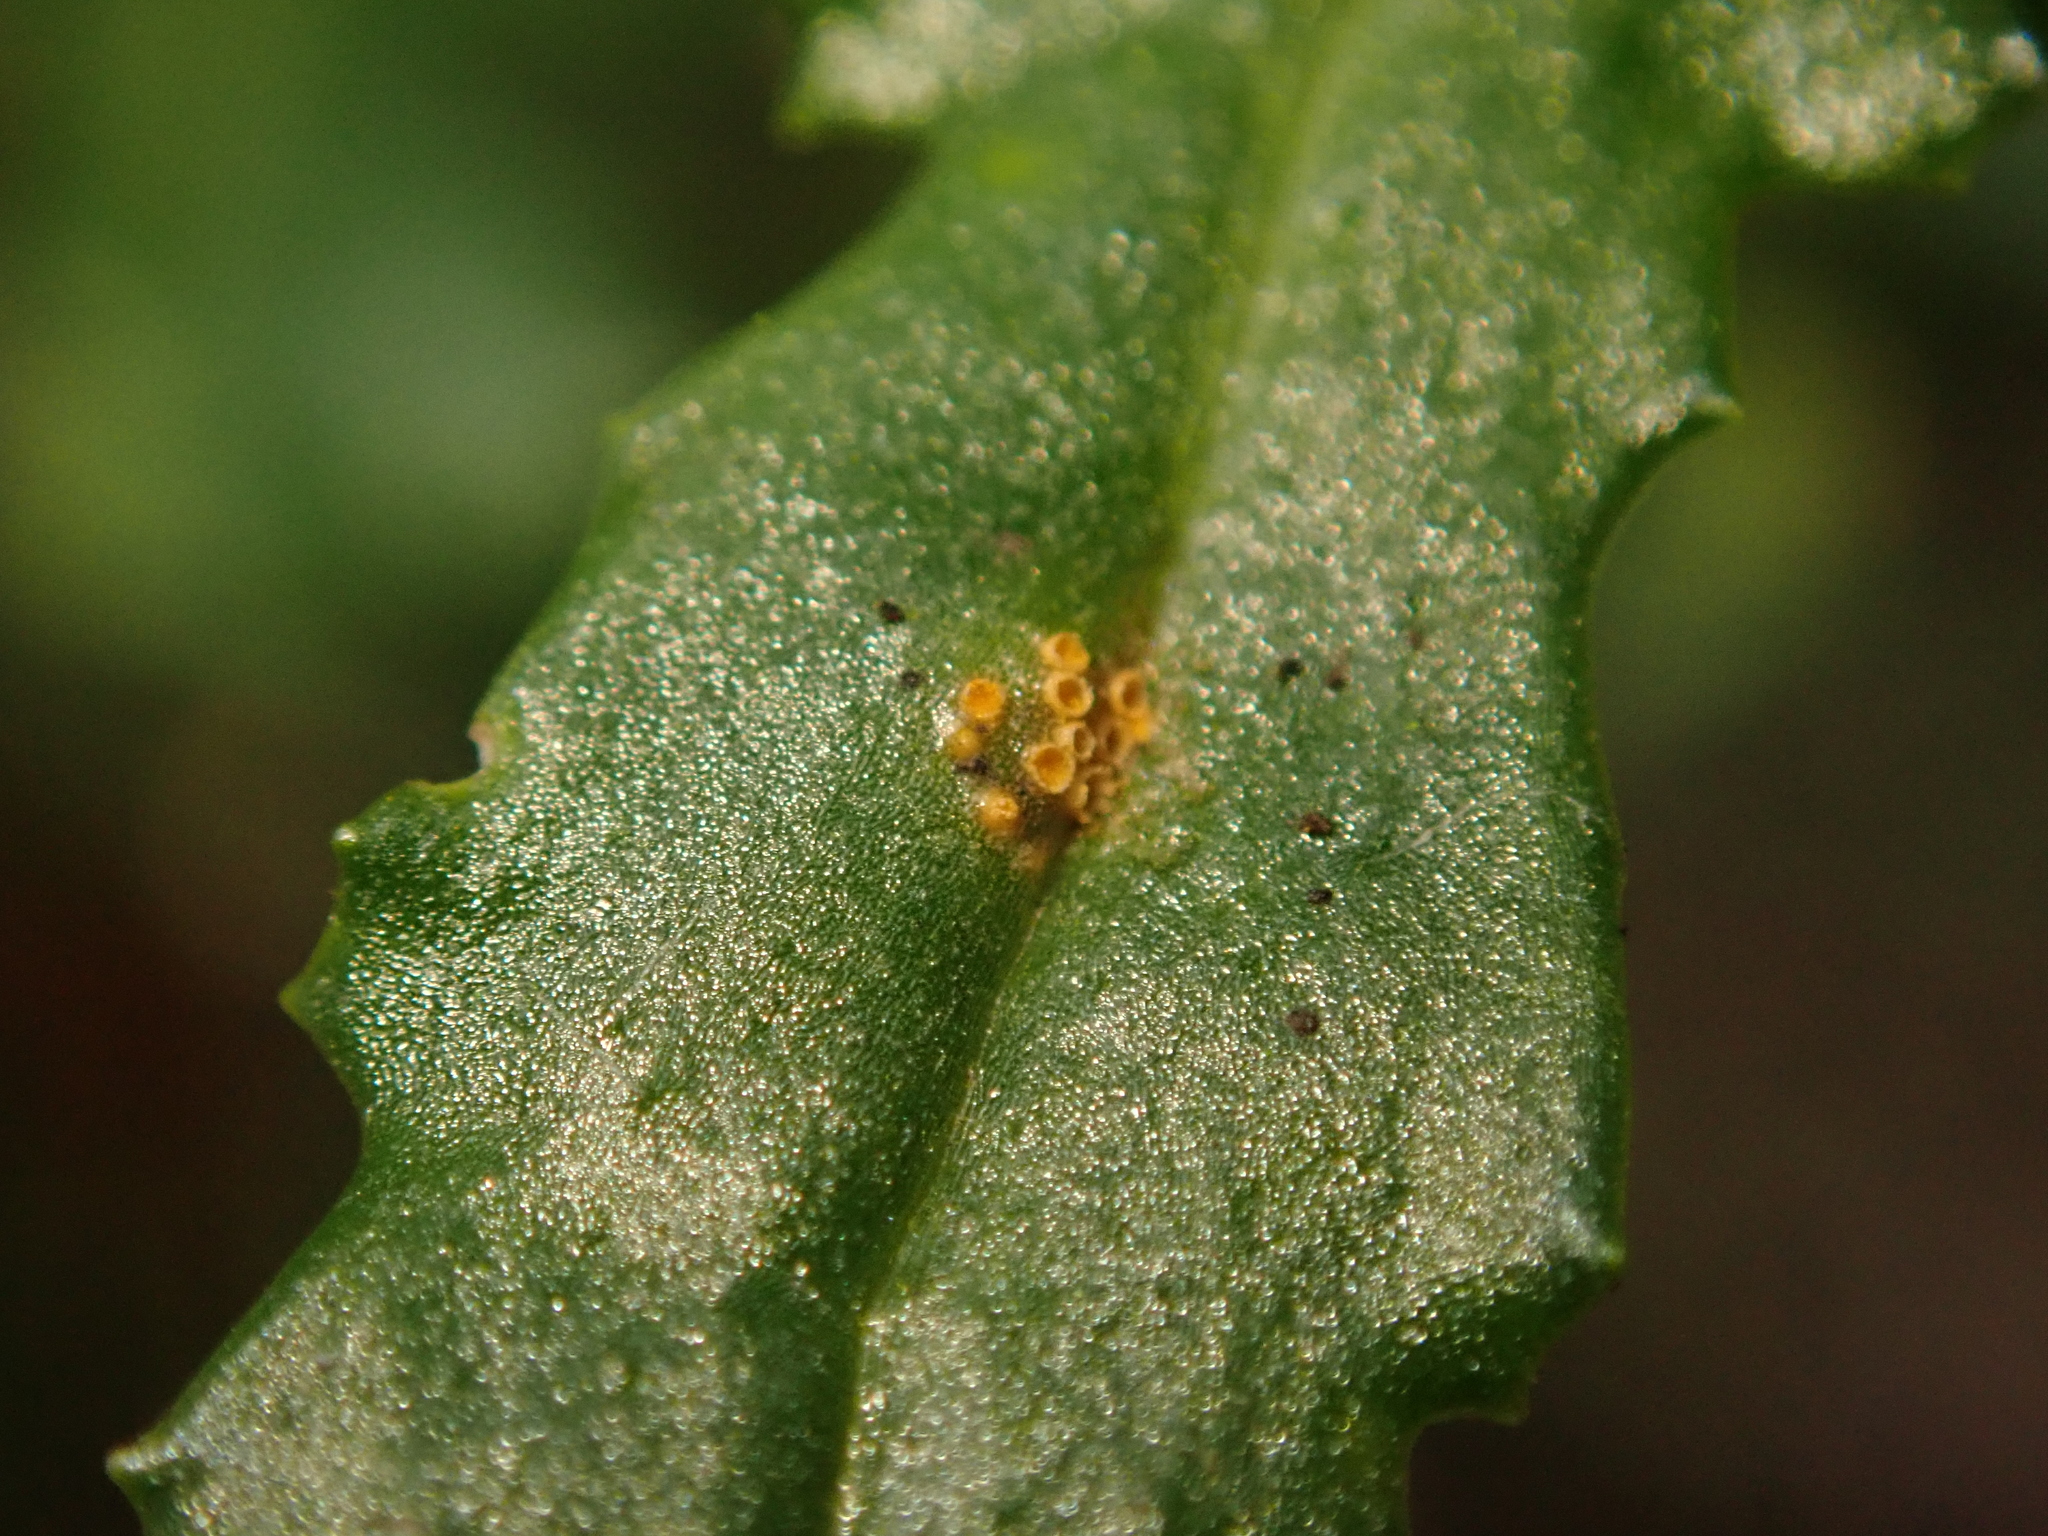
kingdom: Fungi
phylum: Basidiomycota
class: Pucciniomycetes
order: Pucciniales
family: Pucciniaceae
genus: Puccinia
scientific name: Puccinia lagenophorae
